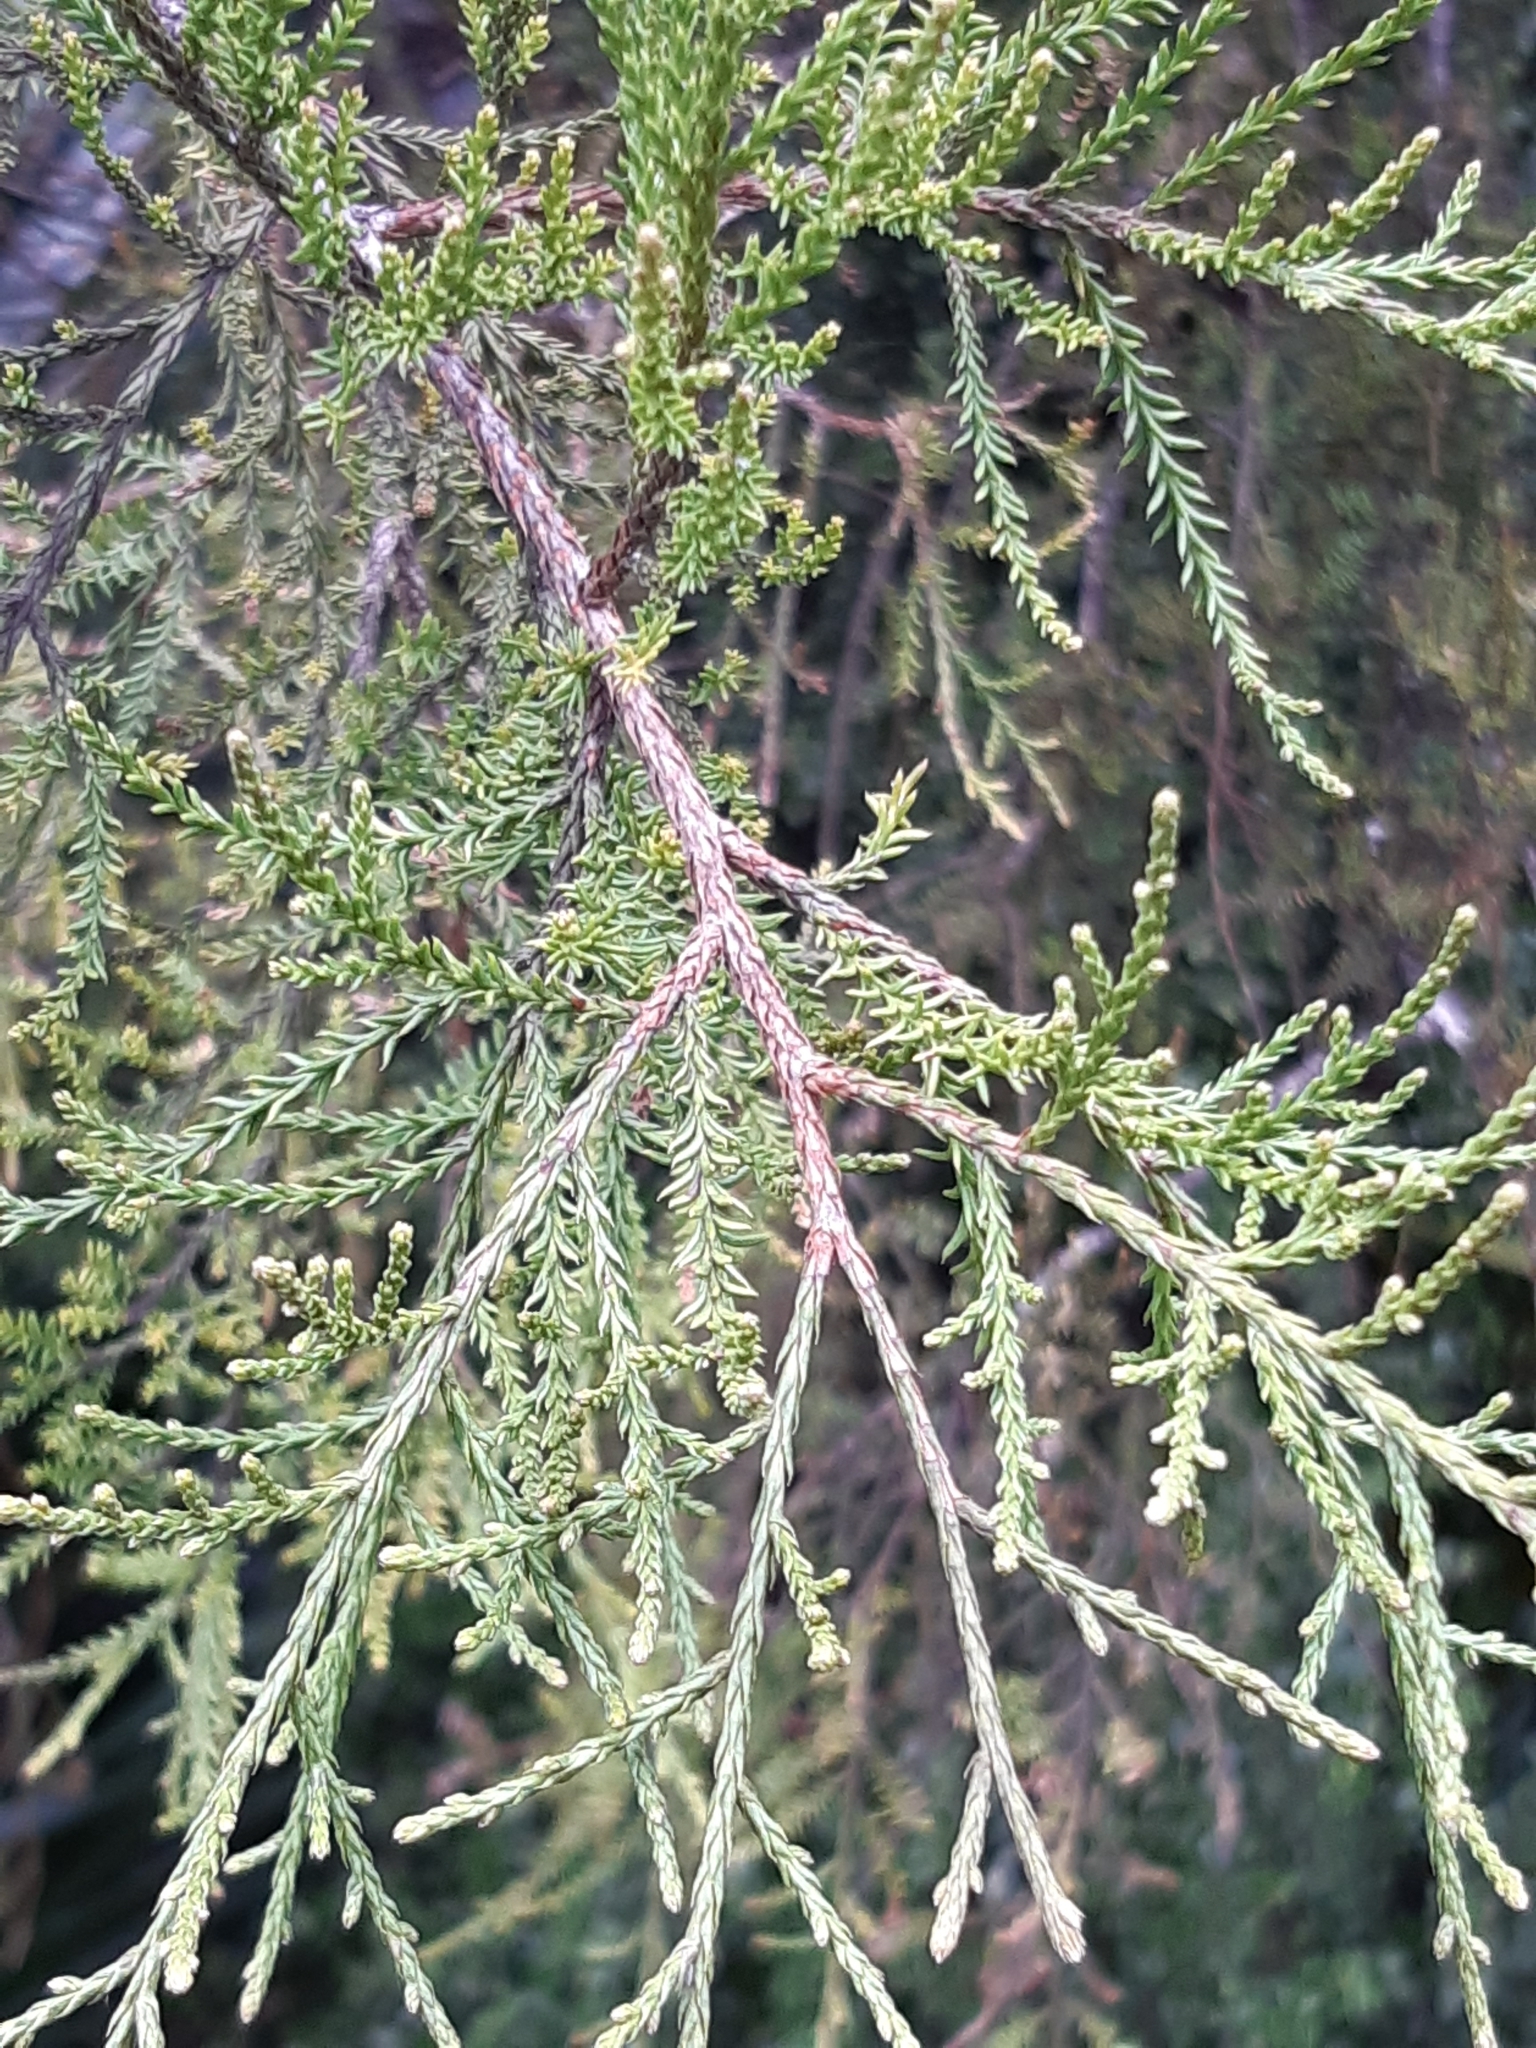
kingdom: Plantae
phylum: Tracheophyta
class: Pinopsida
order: Pinales
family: Podocarpaceae
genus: Dacrycarpus
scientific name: Dacrycarpus dacrydioides
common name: White pine
